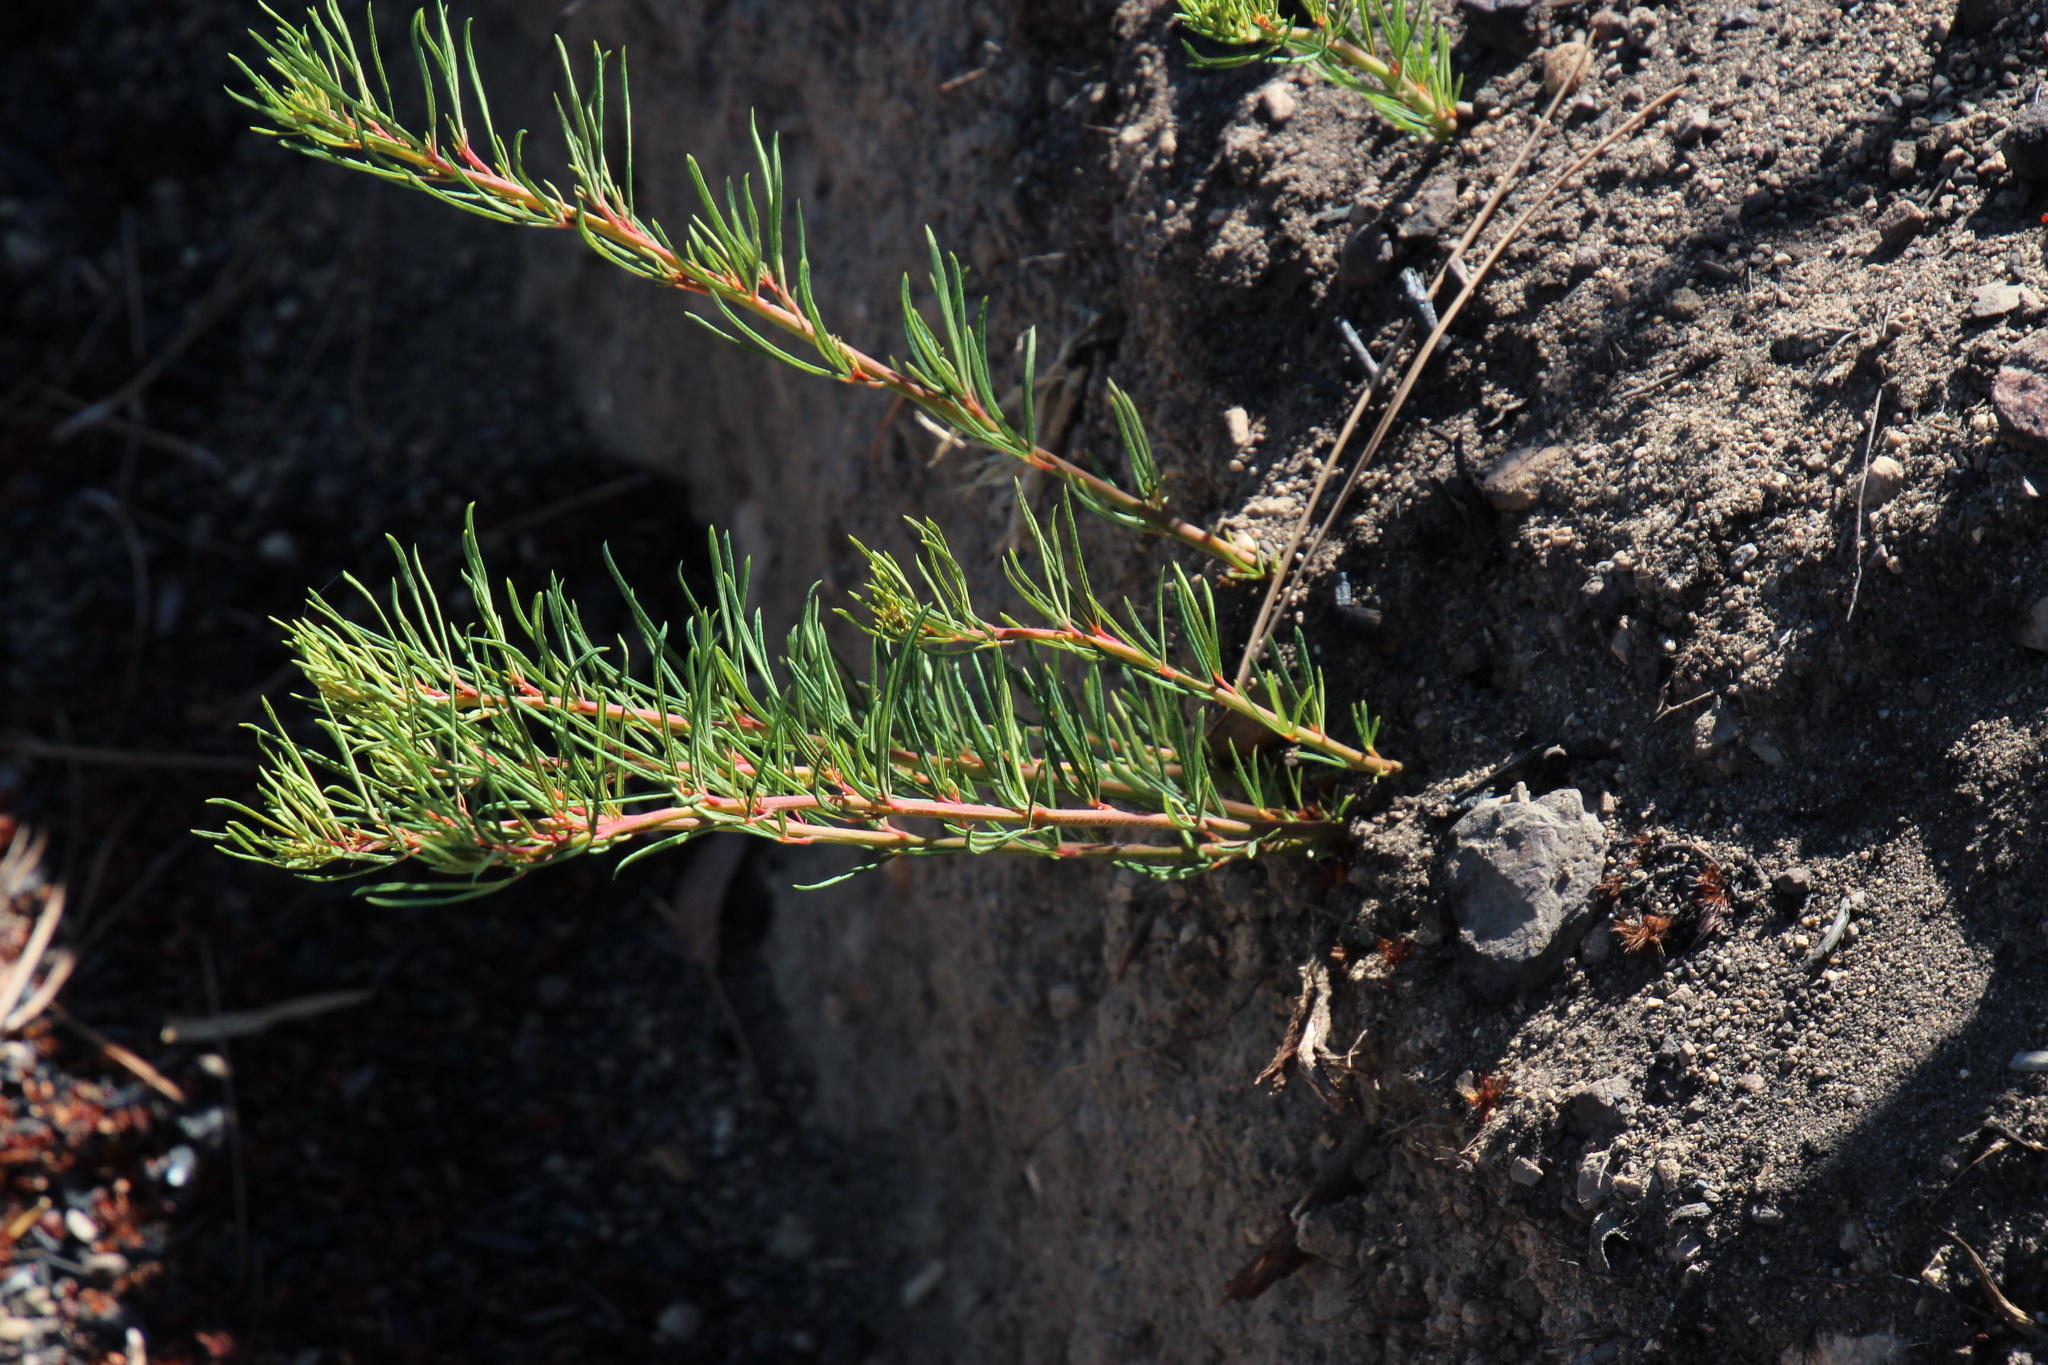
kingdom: Plantae
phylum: Tracheophyta
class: Magnoliopsida
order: Sapindales
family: Anacardiaceae
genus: Searsia
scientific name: Searsia rosmarinifolia
